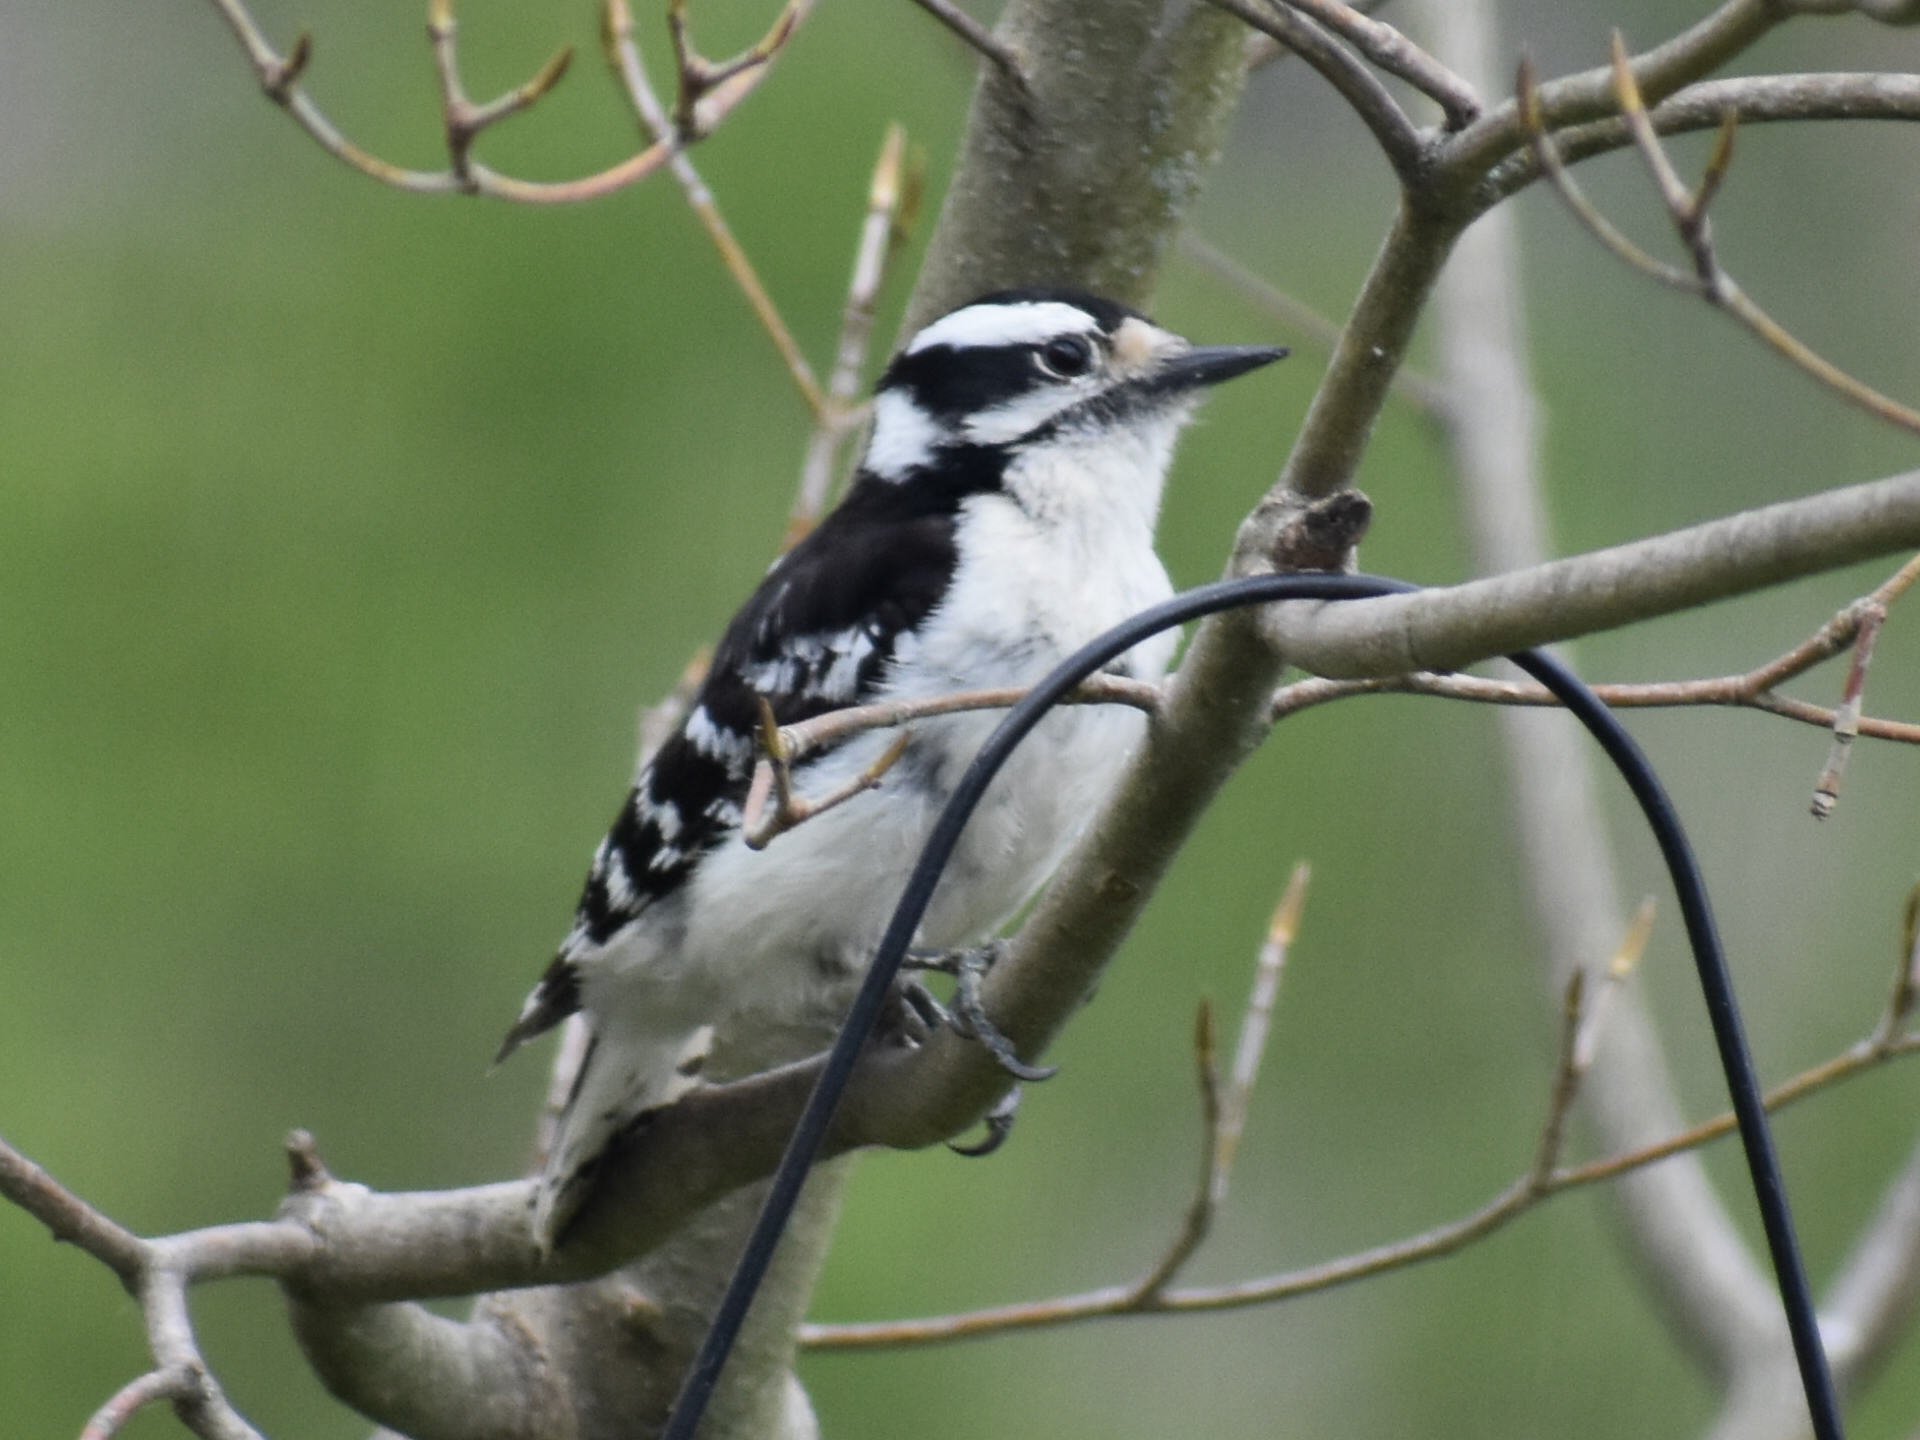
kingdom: Animalia
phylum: Chordata
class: Aves
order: Piciformes
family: Picidae
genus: Dryobates
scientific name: Dryobates pubescens
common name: Downy woodpecker
